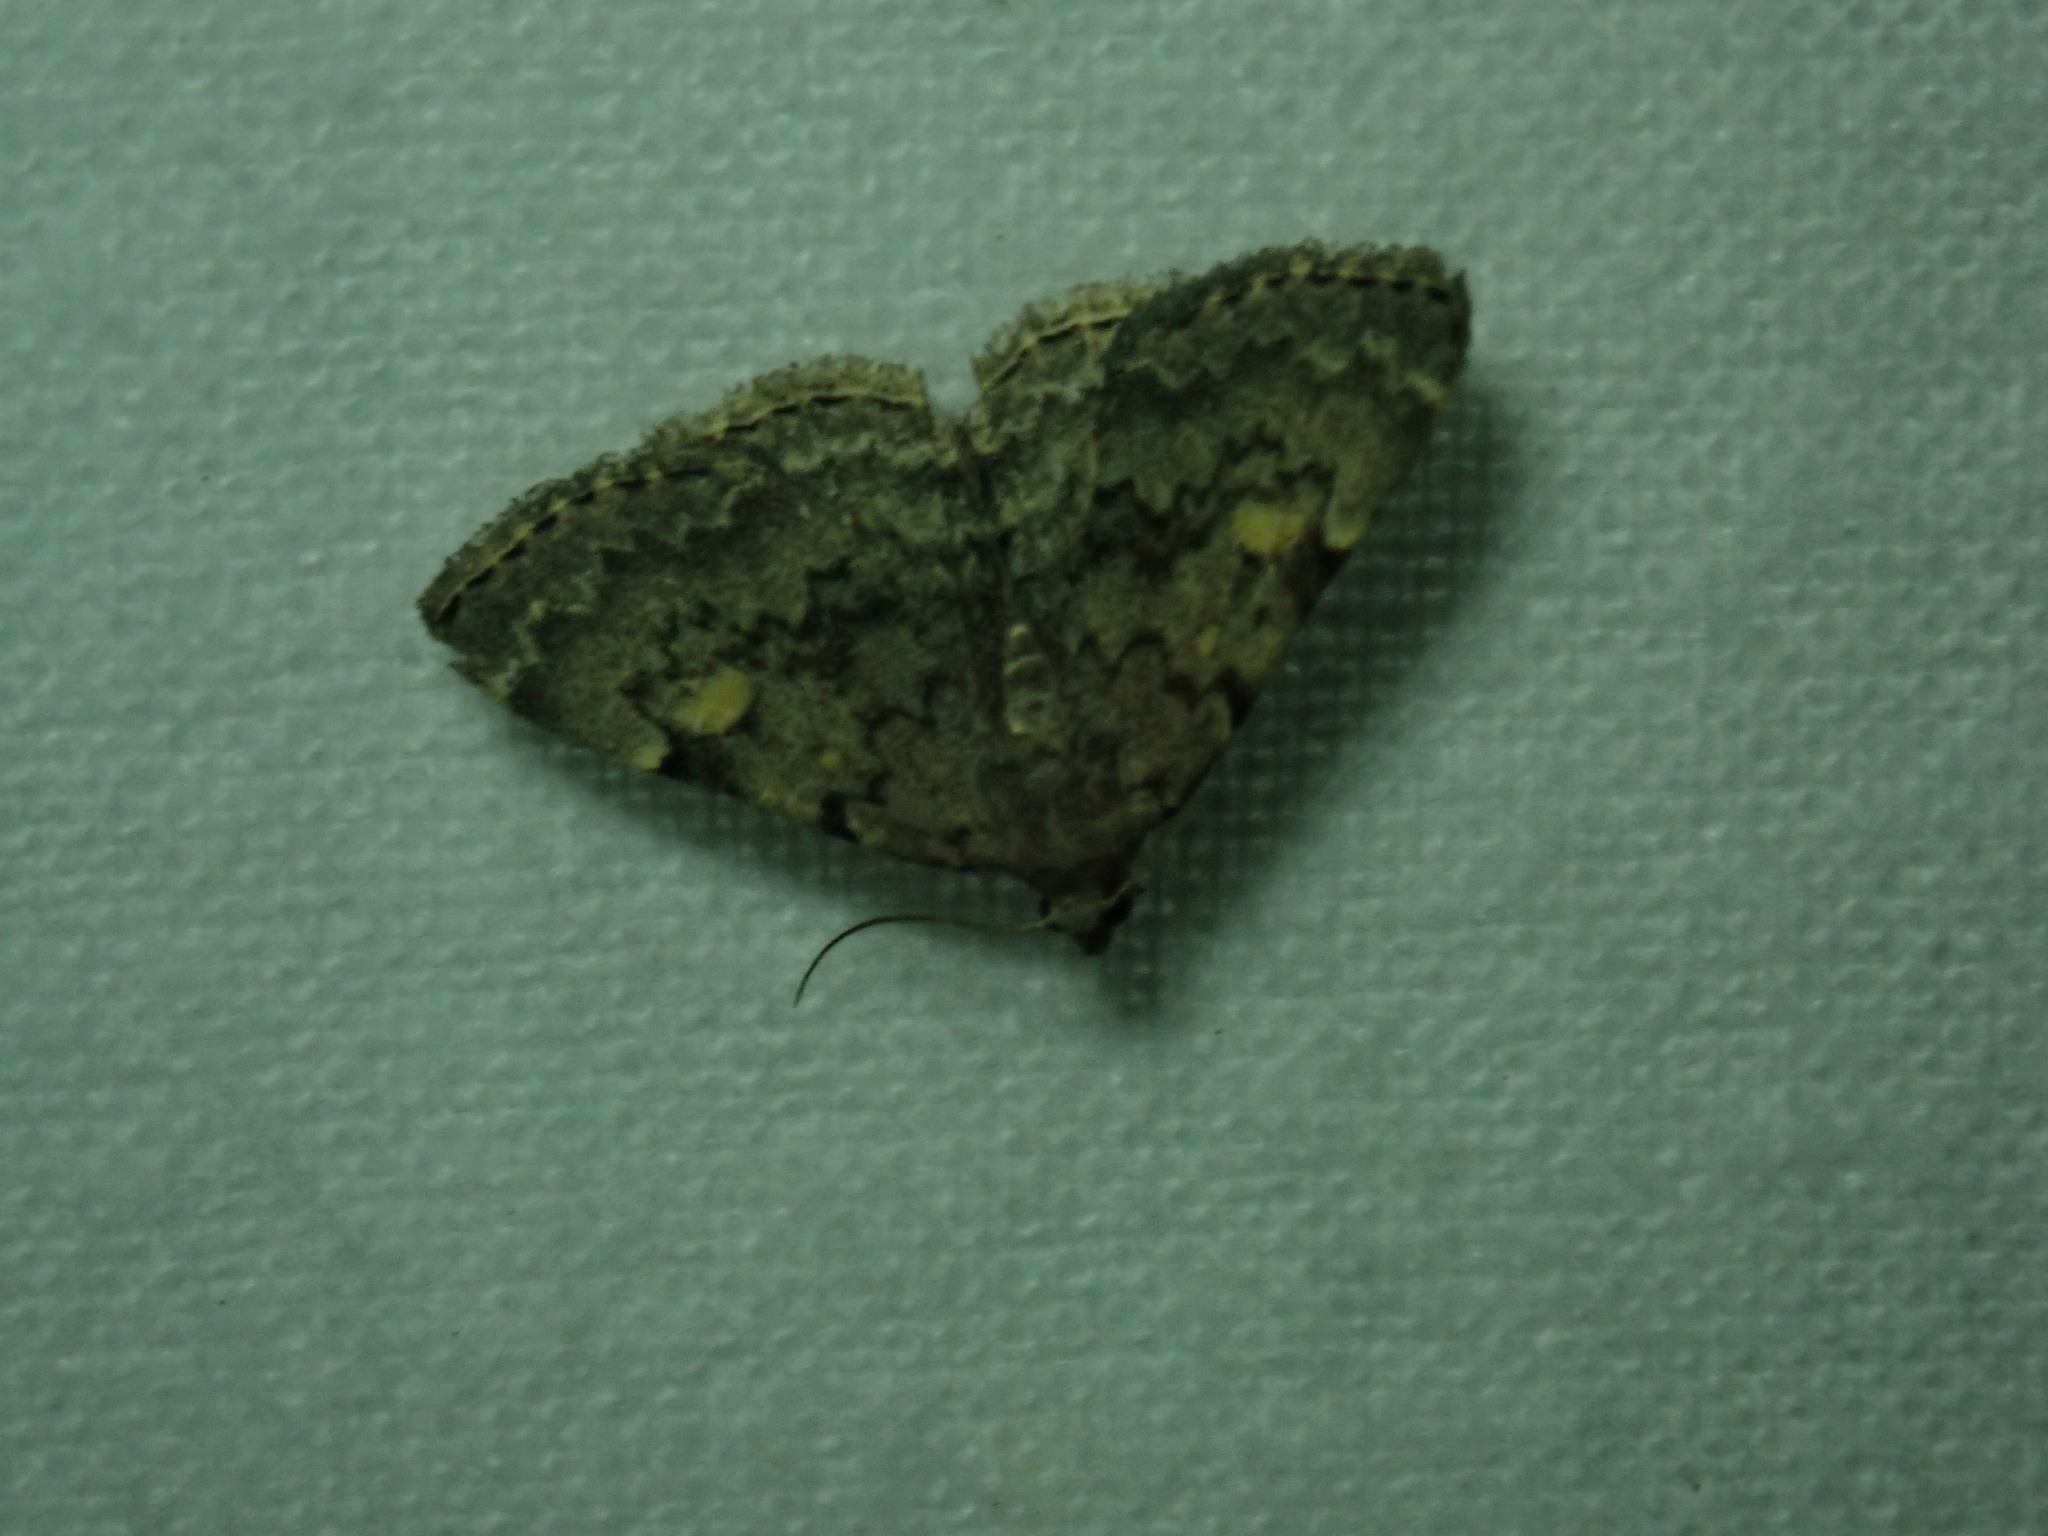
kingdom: Animalia
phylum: Arthropoda
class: Insecta
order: Lepidoptera
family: Erebidae
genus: Idia
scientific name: Idia aemula
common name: Common idia moth
